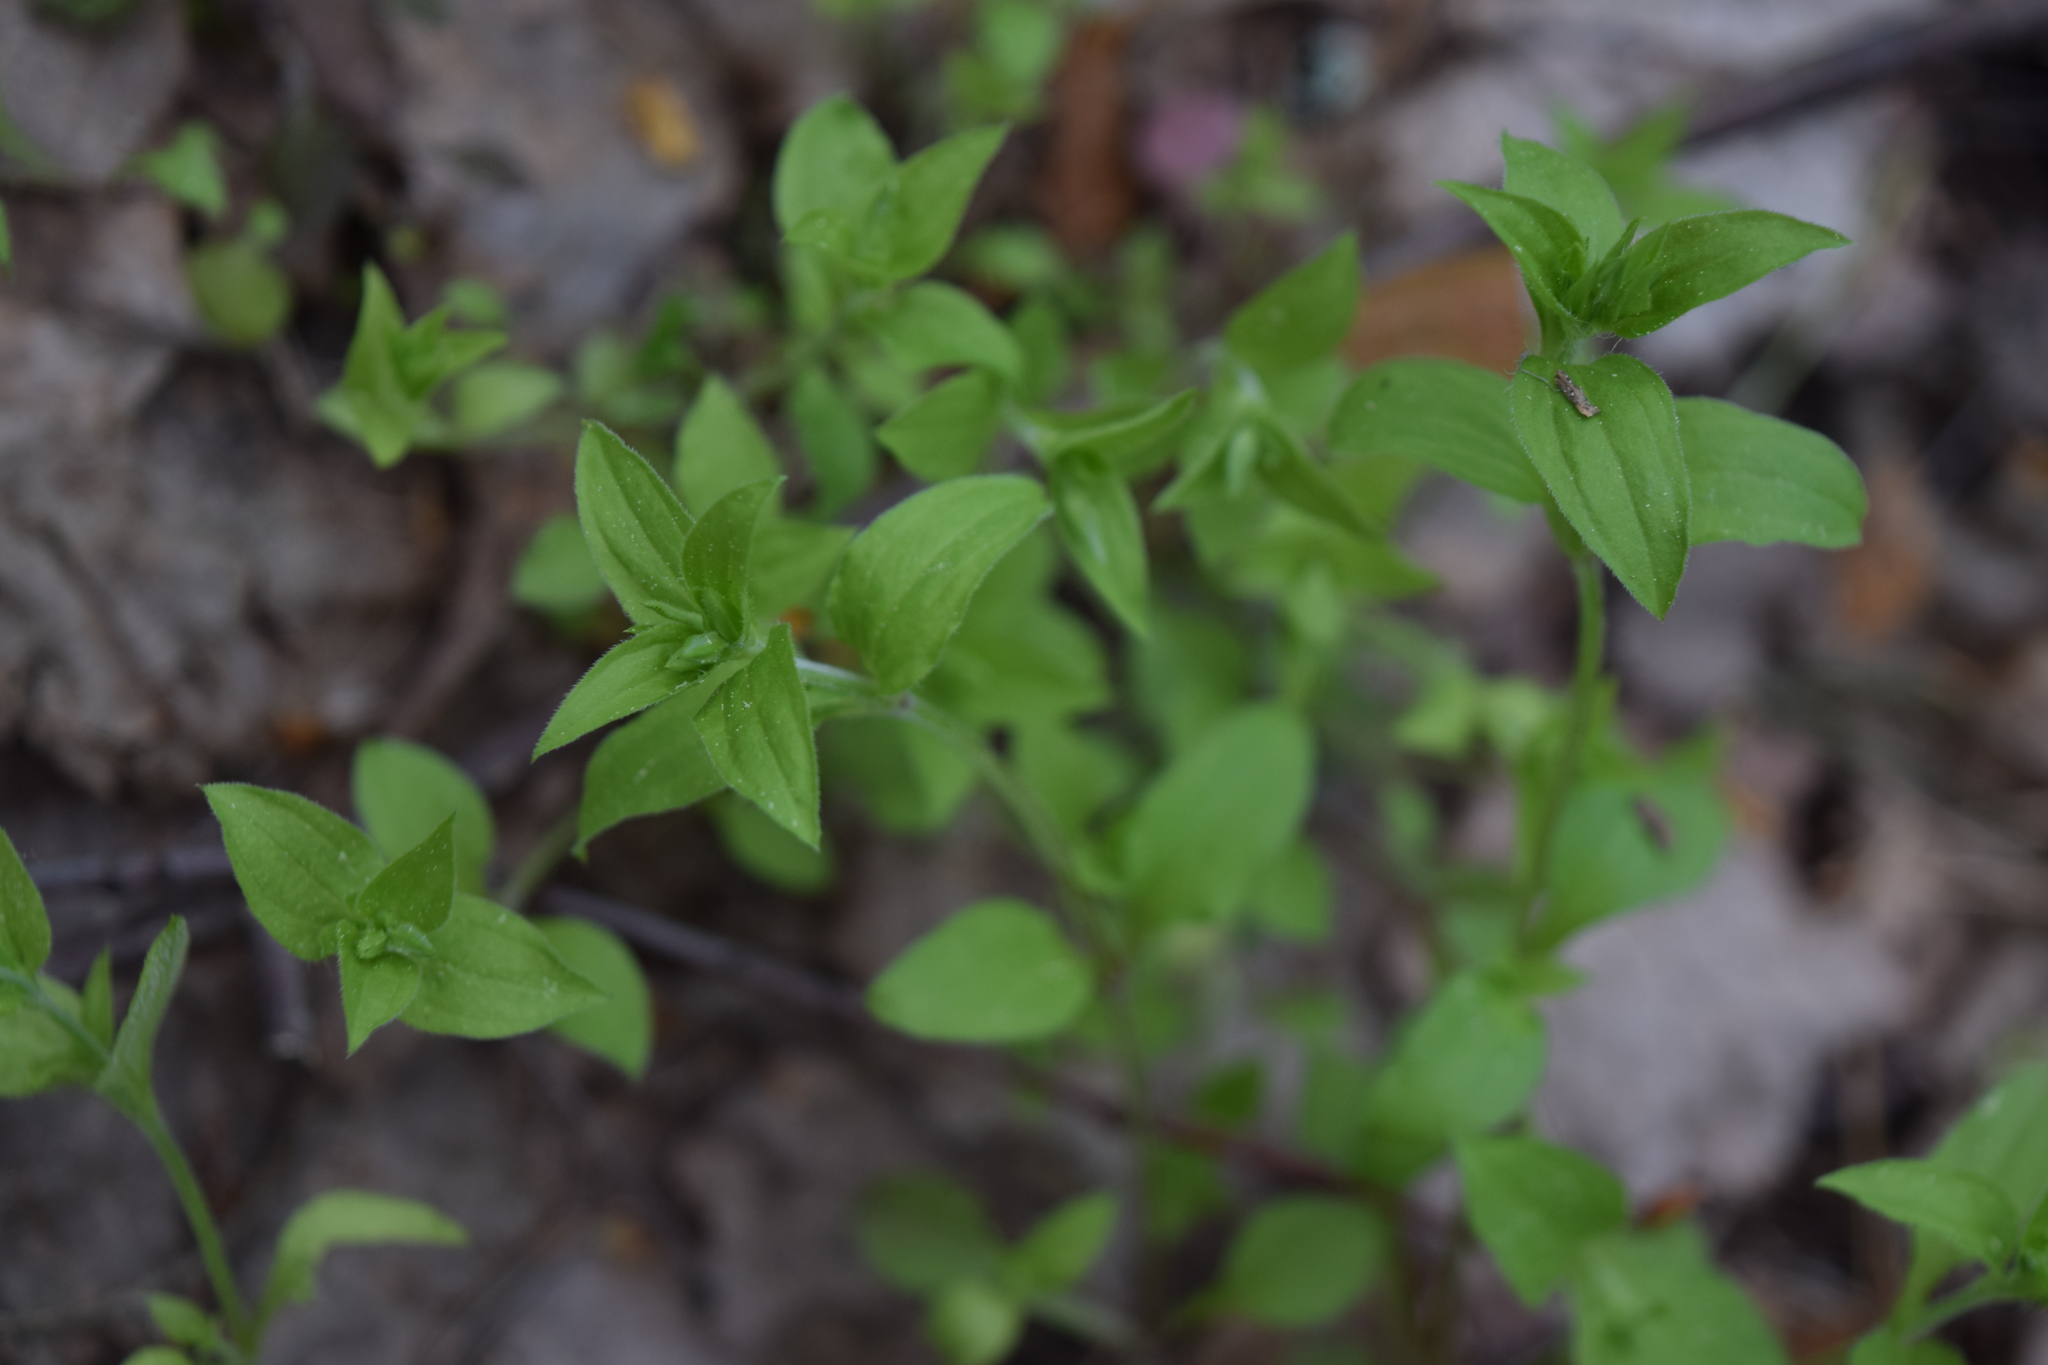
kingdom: Plantae
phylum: Tracheophyta
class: Magnoliopsida
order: Caryophyllales
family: Caryophyllaceae
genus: Moehringia
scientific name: Moehringia trinervia
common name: Three-nerved sandwort
